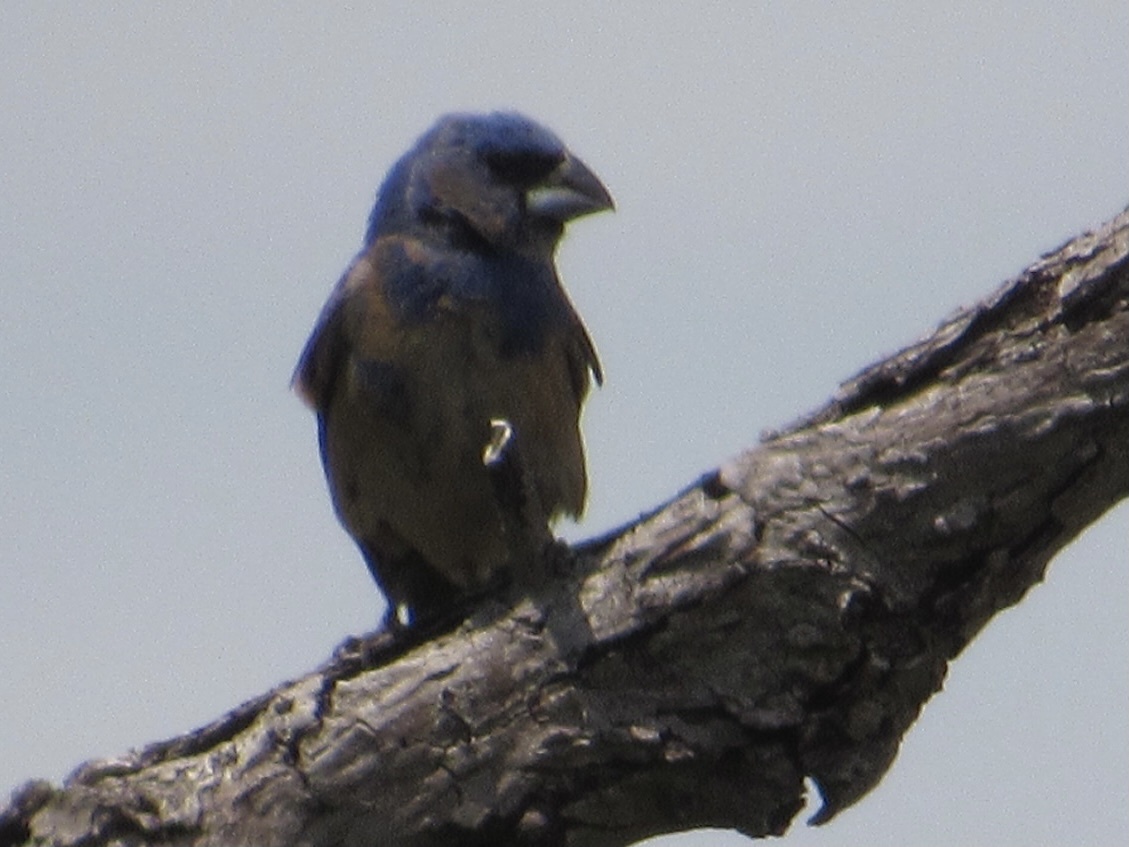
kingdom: Animalia
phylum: Chordata
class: Aves
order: Passeriformes
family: Cardinalidae
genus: Passerina
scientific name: Passerina caerulea
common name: Blue grosbeak
